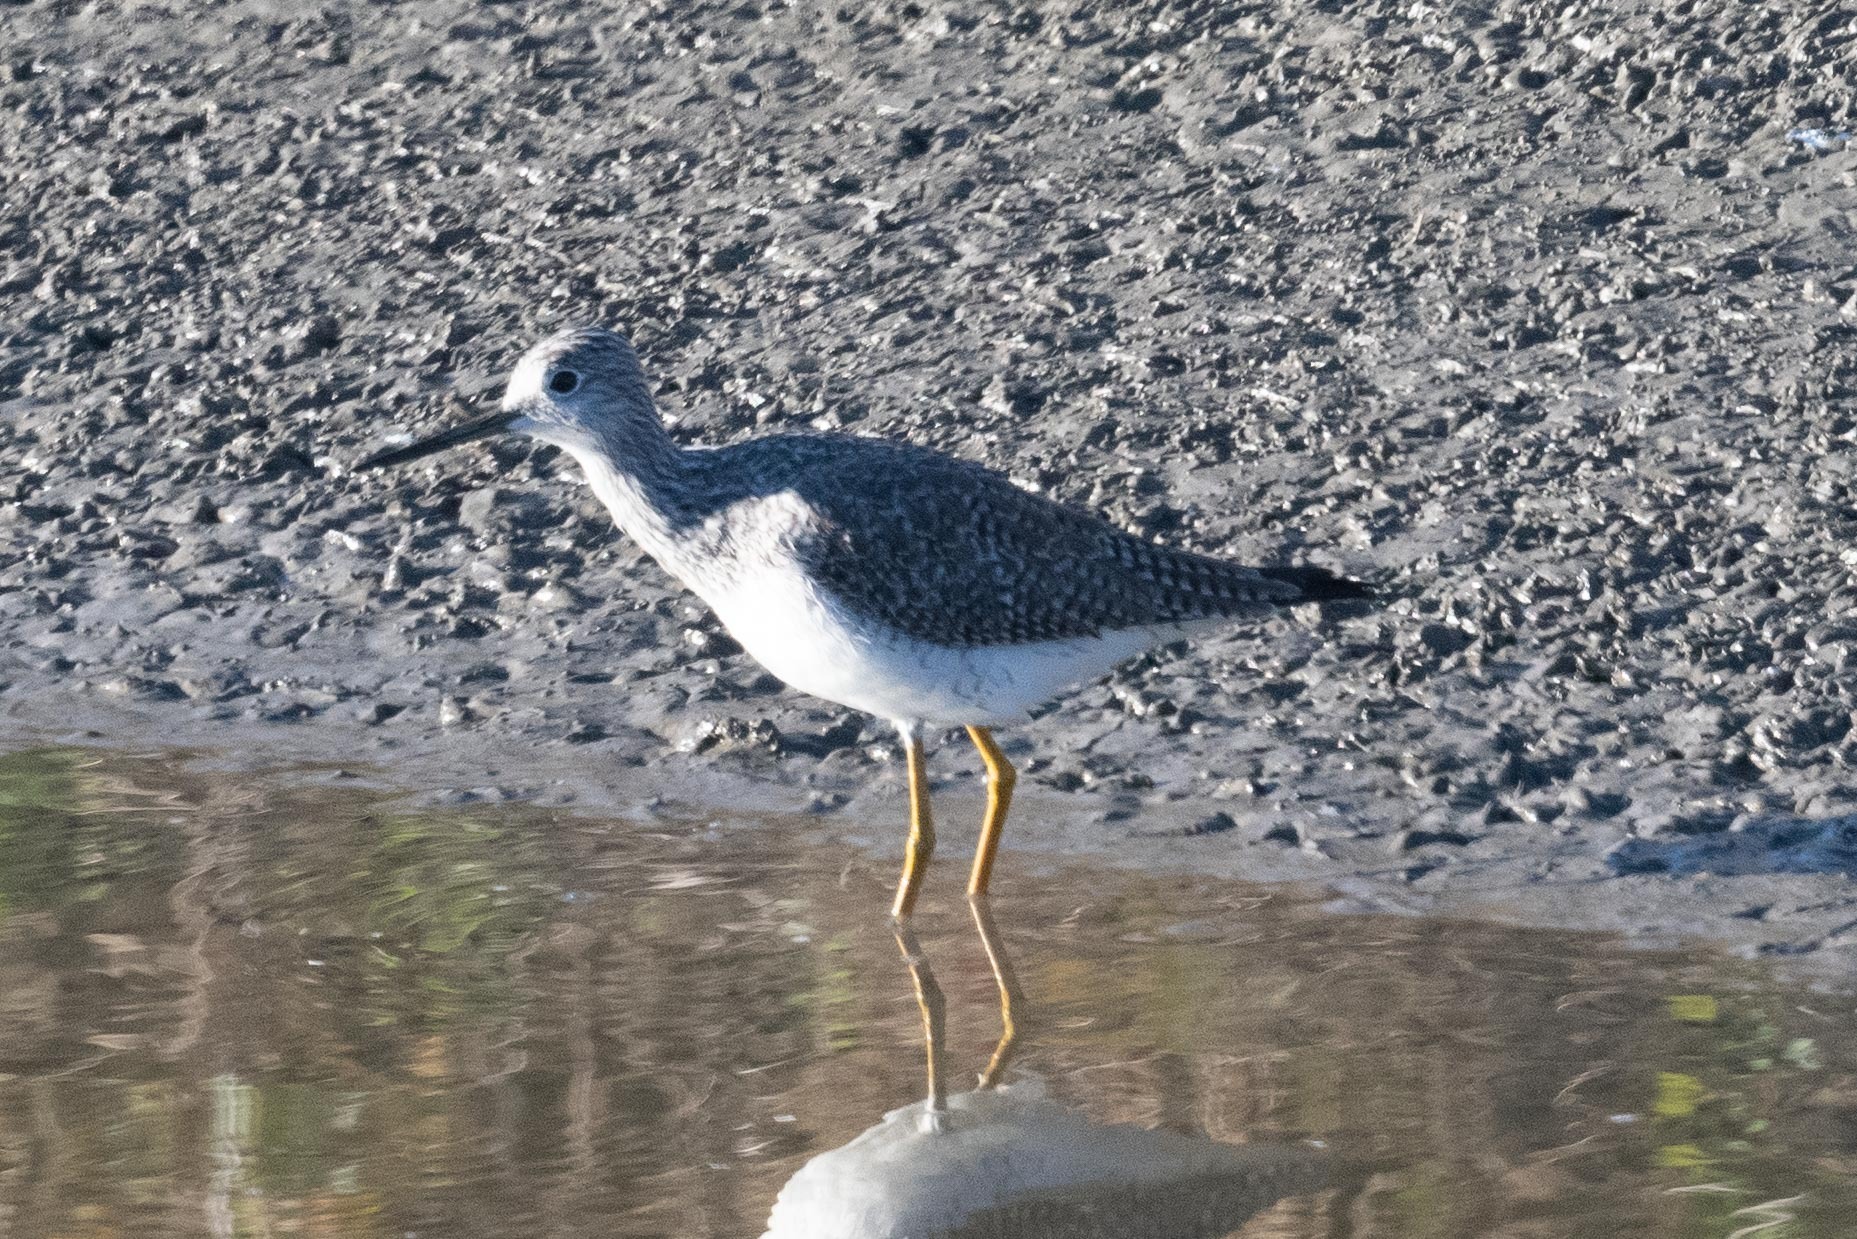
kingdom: Animalia
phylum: Chordata
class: Aves
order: Charadriiformes
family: Scolopacidae
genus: Tringa
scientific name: Tringa melanoleuca
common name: Greater yellowlegs
